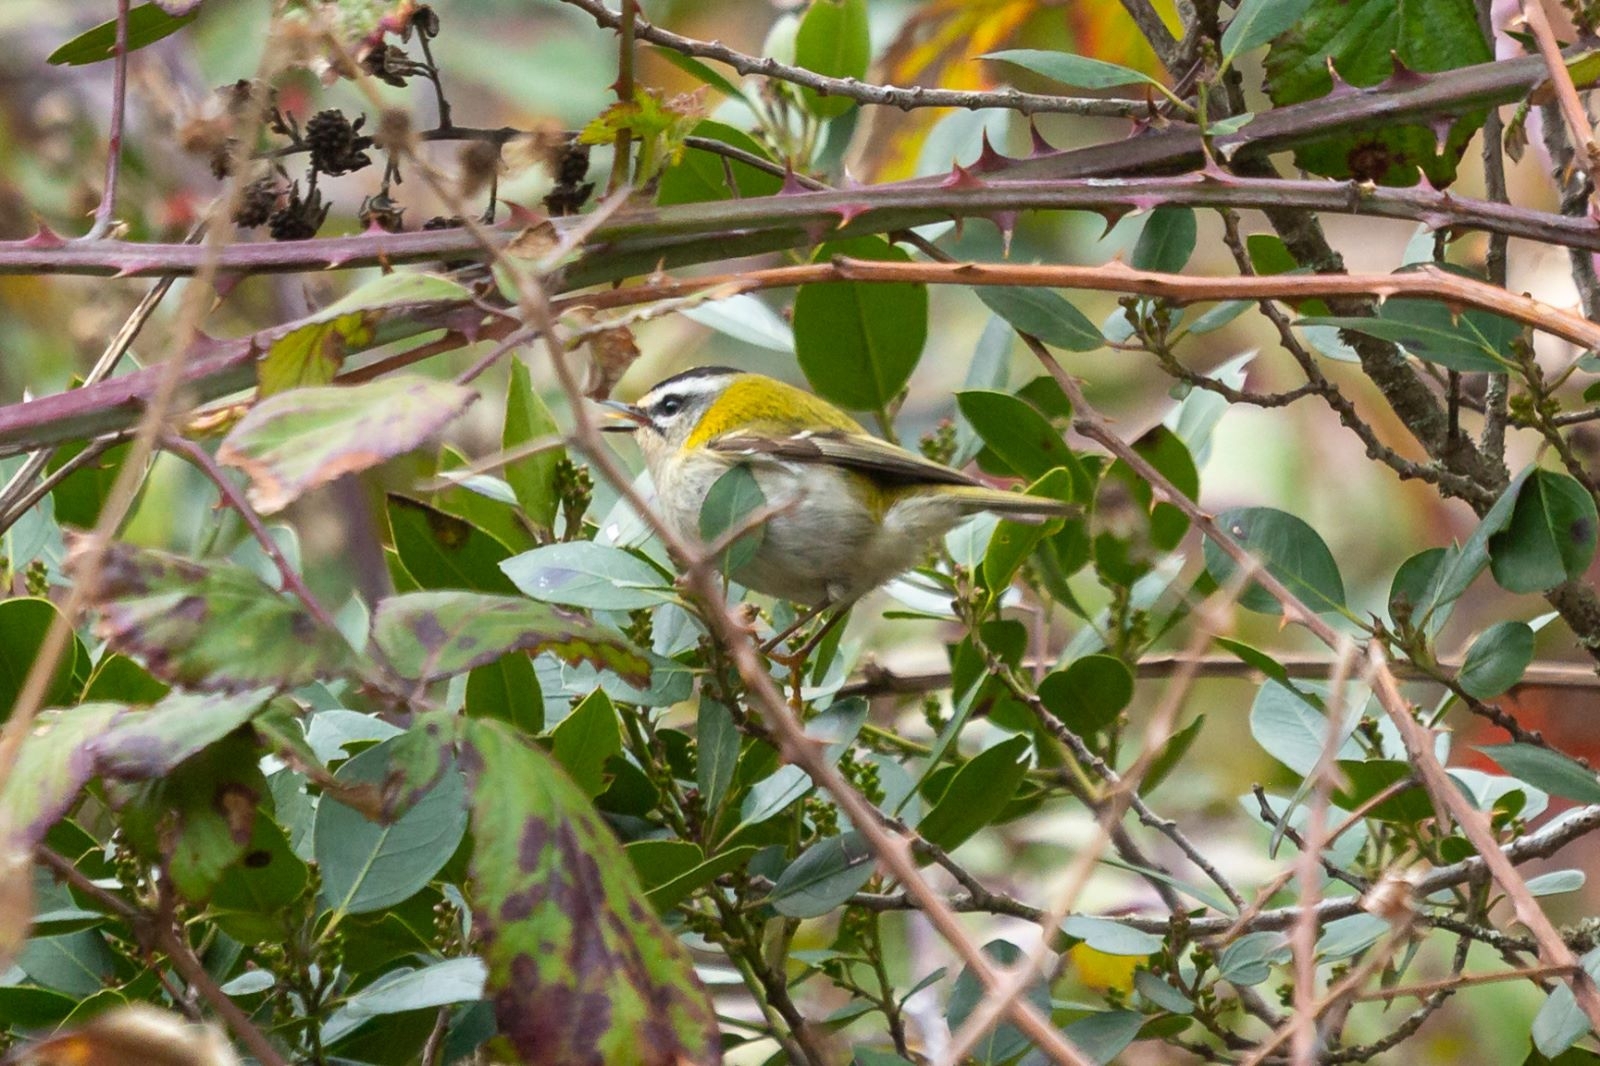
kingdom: Animalia
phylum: Chordata
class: Aves
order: Passeriformes
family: Regulidae
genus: Regulus
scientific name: Regulus ignicapilla
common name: Firecrest
